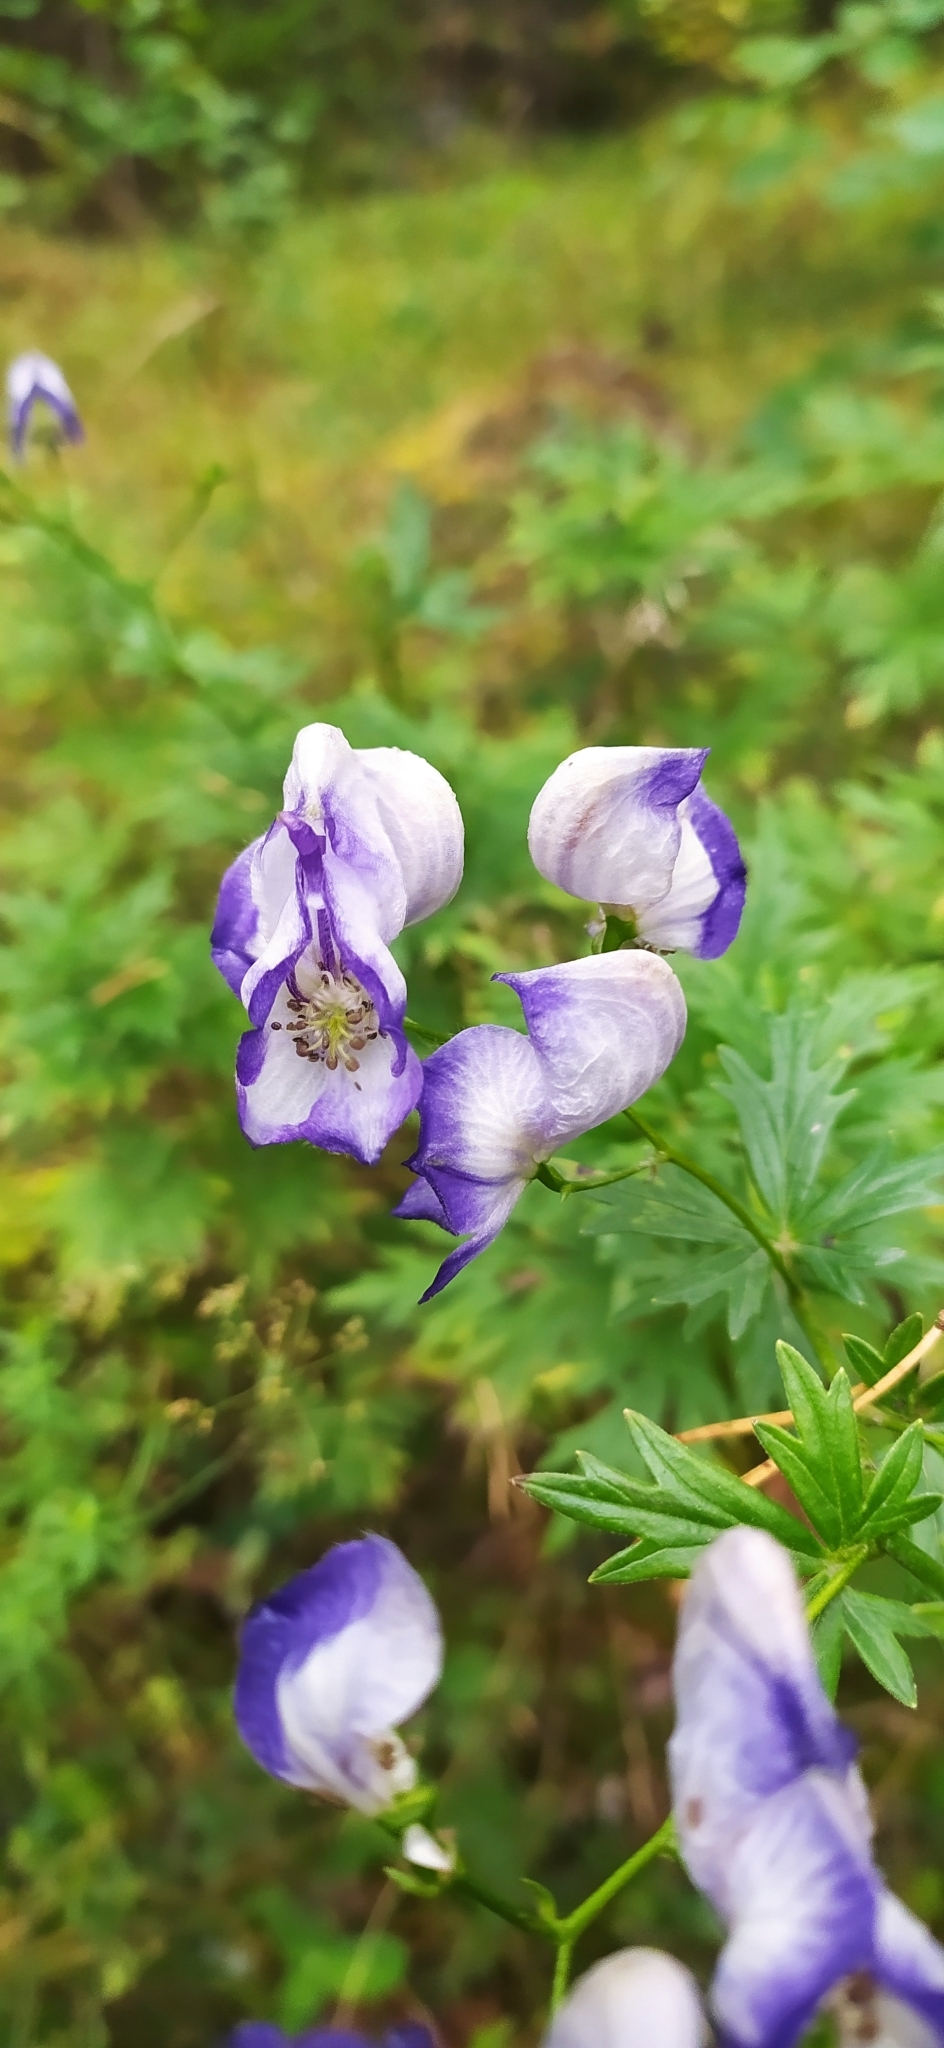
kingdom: Plantae
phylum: Tracheophyta
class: Magnoliopsida
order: Ranunculales
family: Ranunculaceae
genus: Aconitum
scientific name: Aconitum variegatum
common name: Manchurian monkshood
